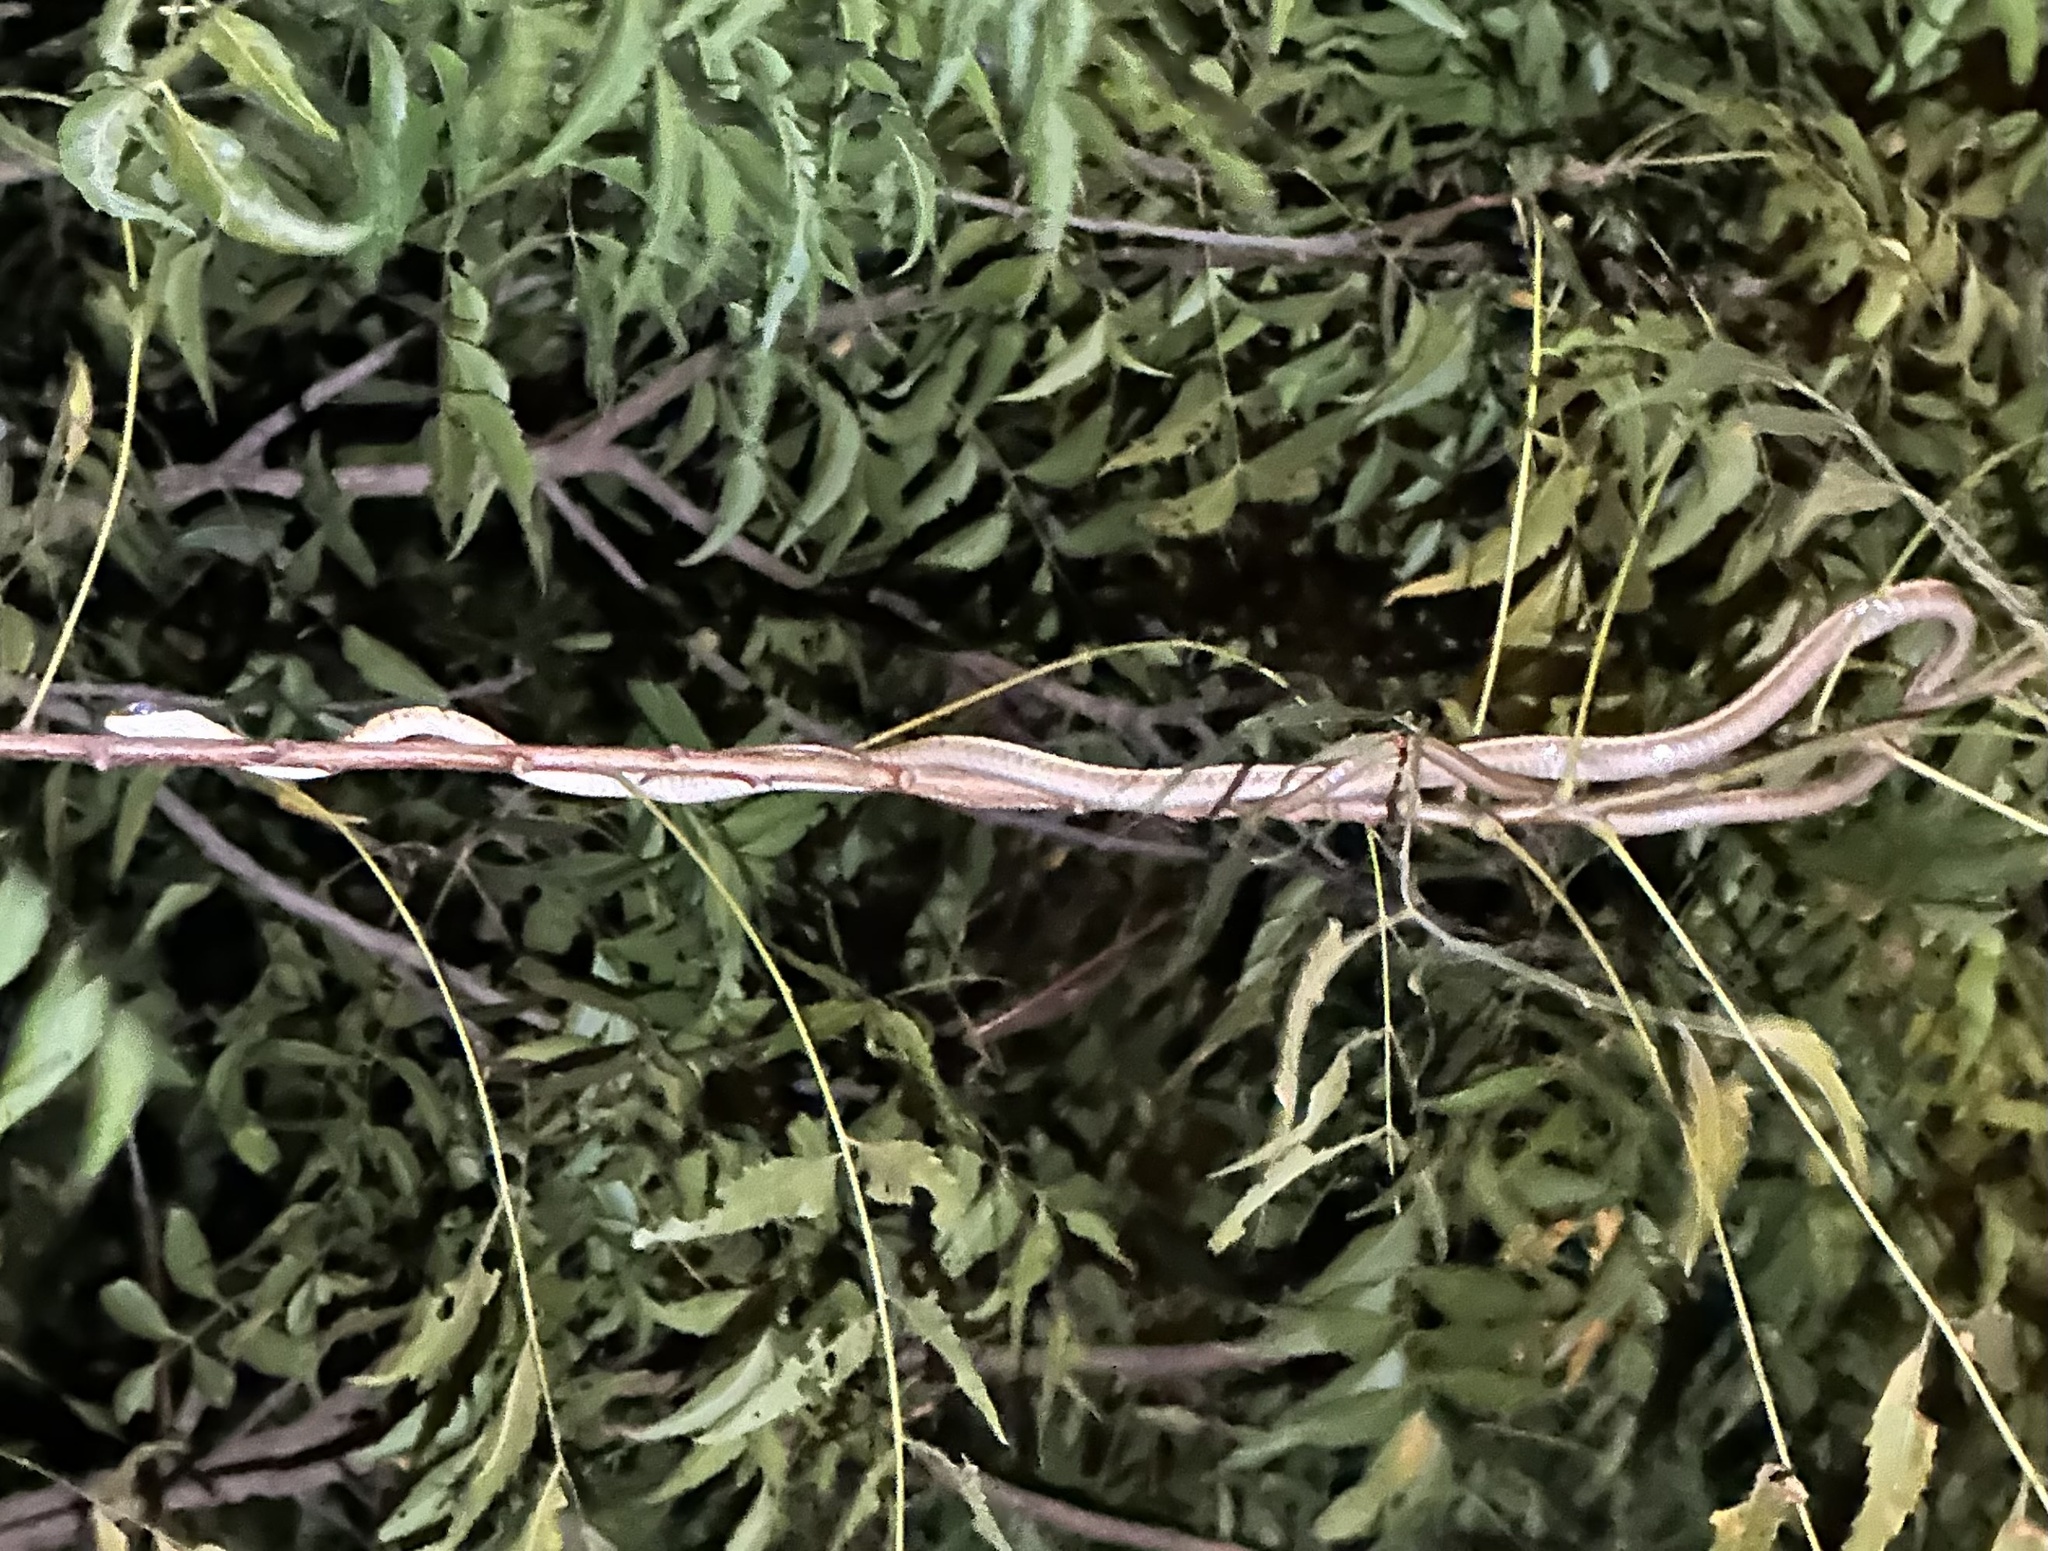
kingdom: Animalia
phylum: Chordata
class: Squamata
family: Colubridae
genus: Dendrelaphis
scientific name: Dendrelaphis tristis
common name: Daudin's bronzeback
